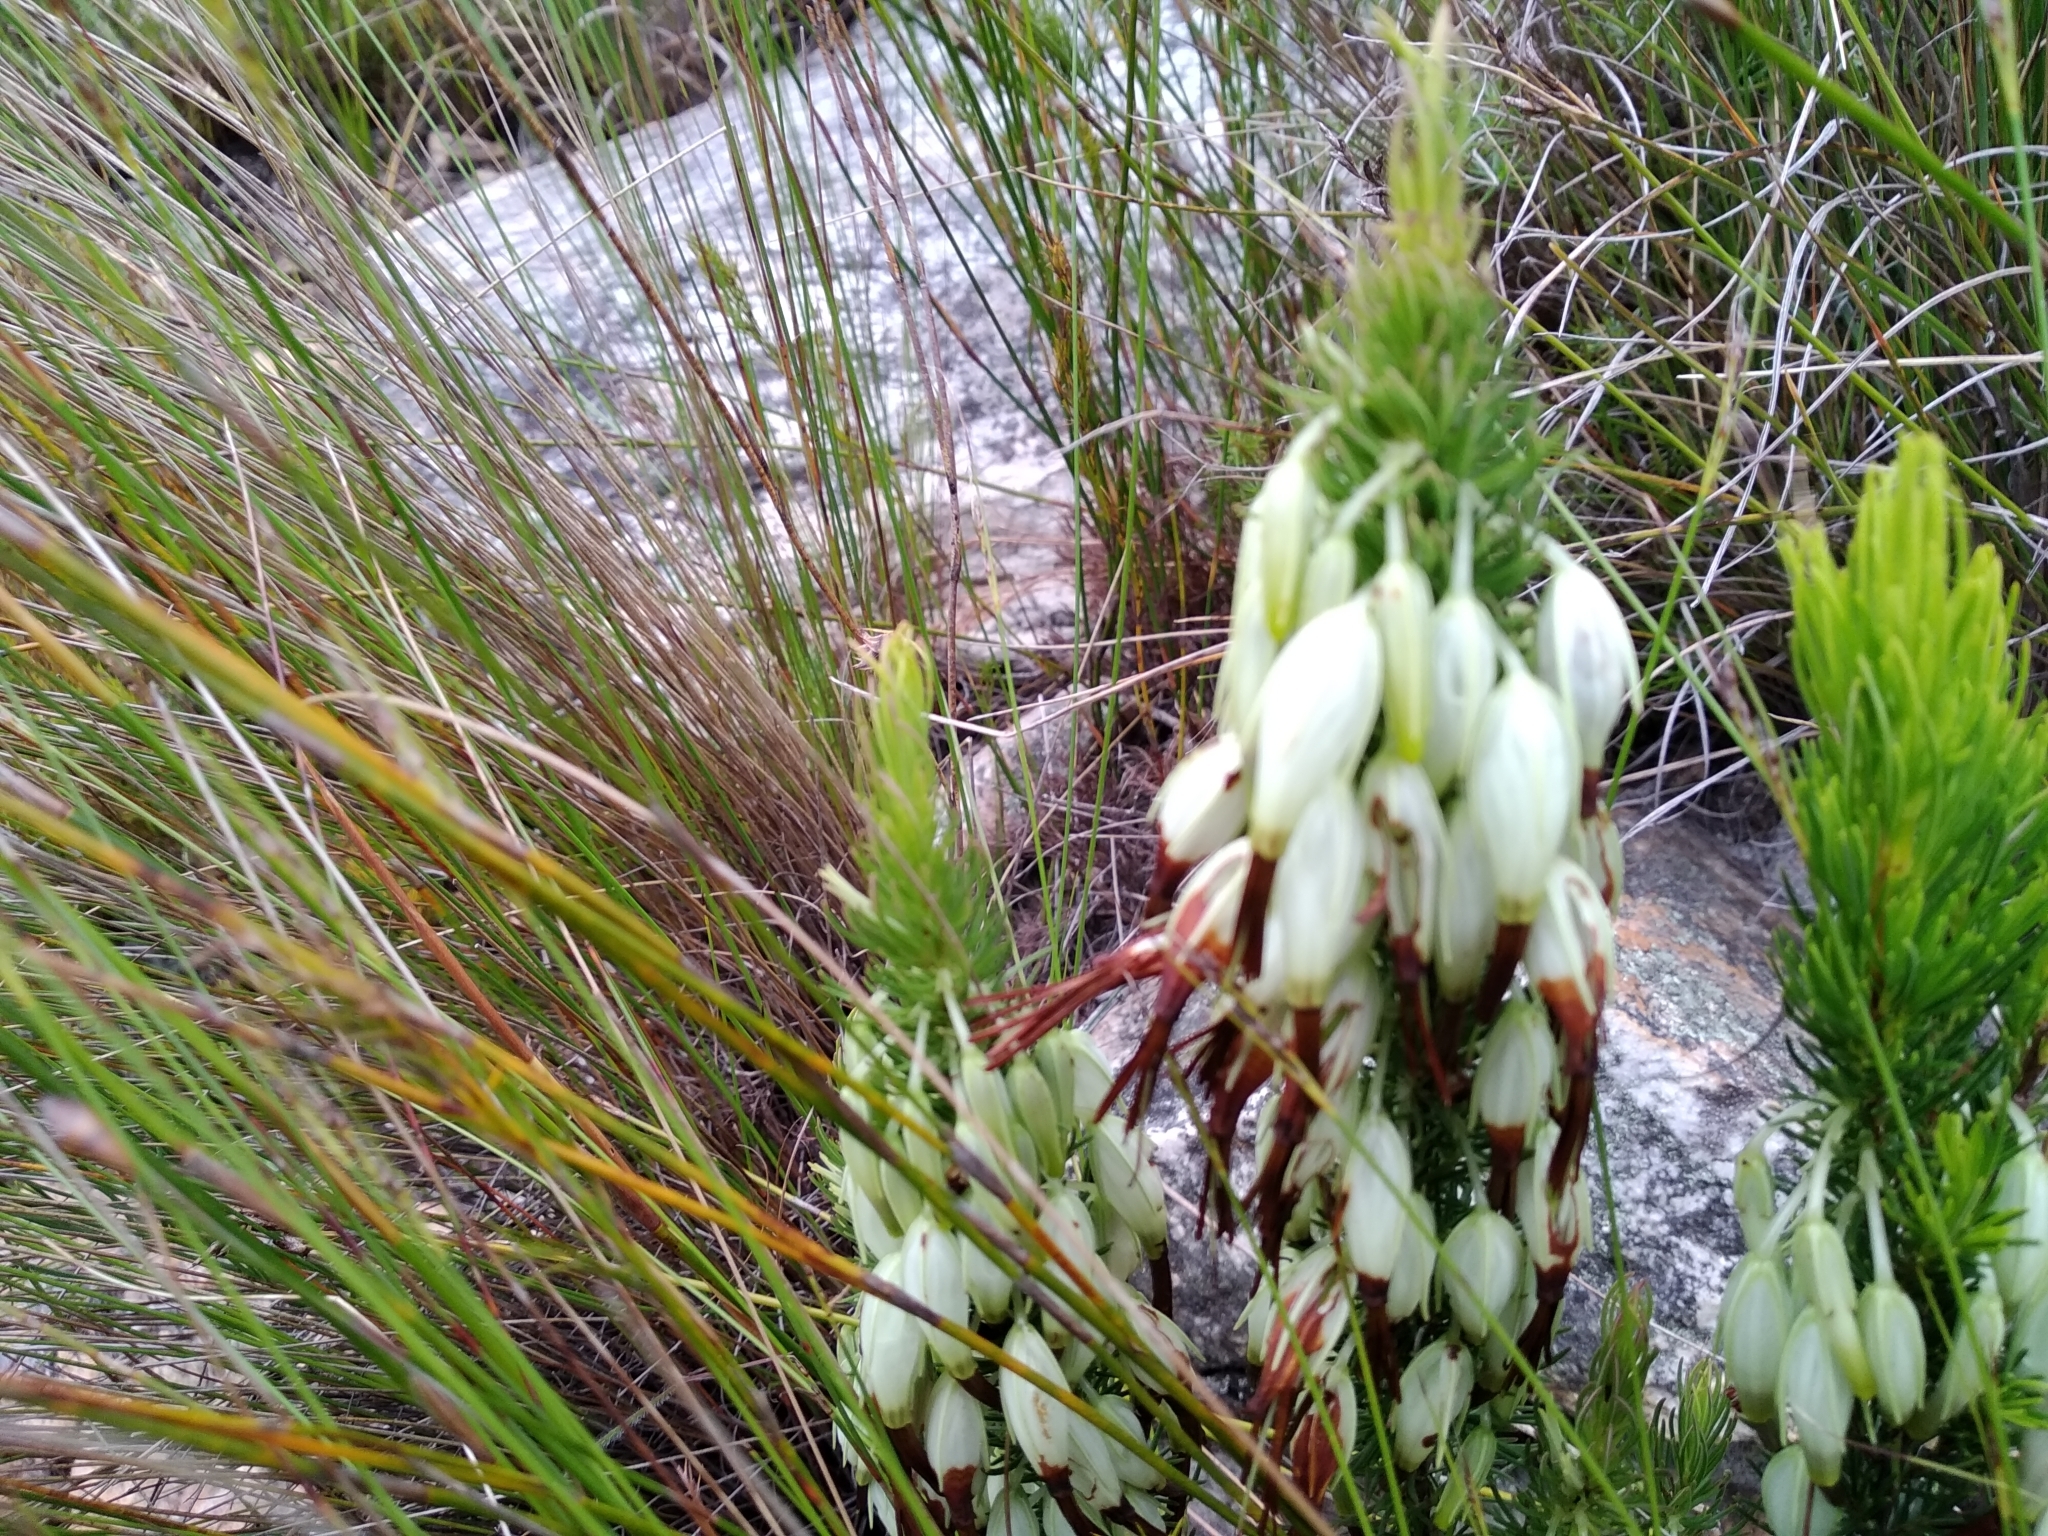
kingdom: Plantae
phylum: Tracheophyta
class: Magnoliopsida
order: Ericales
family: Ericaceae
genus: Erica
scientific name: Erica plukenetii
